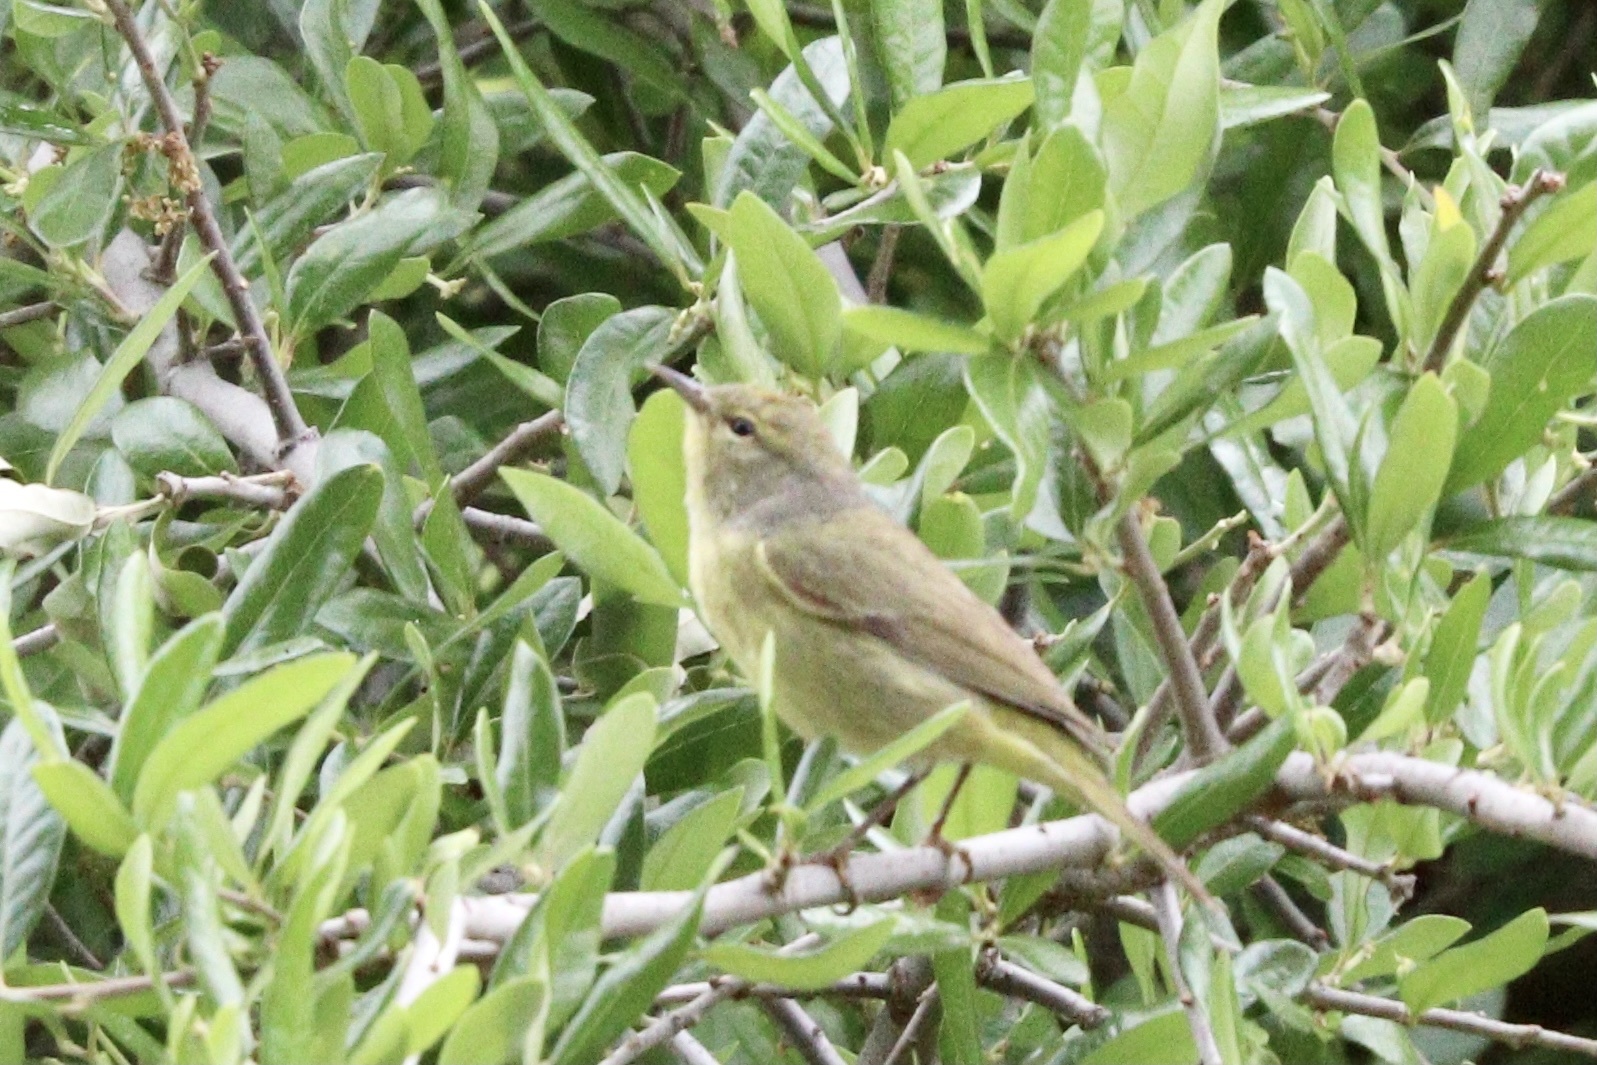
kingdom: Animalia
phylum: Chordata
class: Aves
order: Passeriformes
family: Parulidae
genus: Leiothlypis
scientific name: Leiothlypis celata
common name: Orange-crowned warbler
